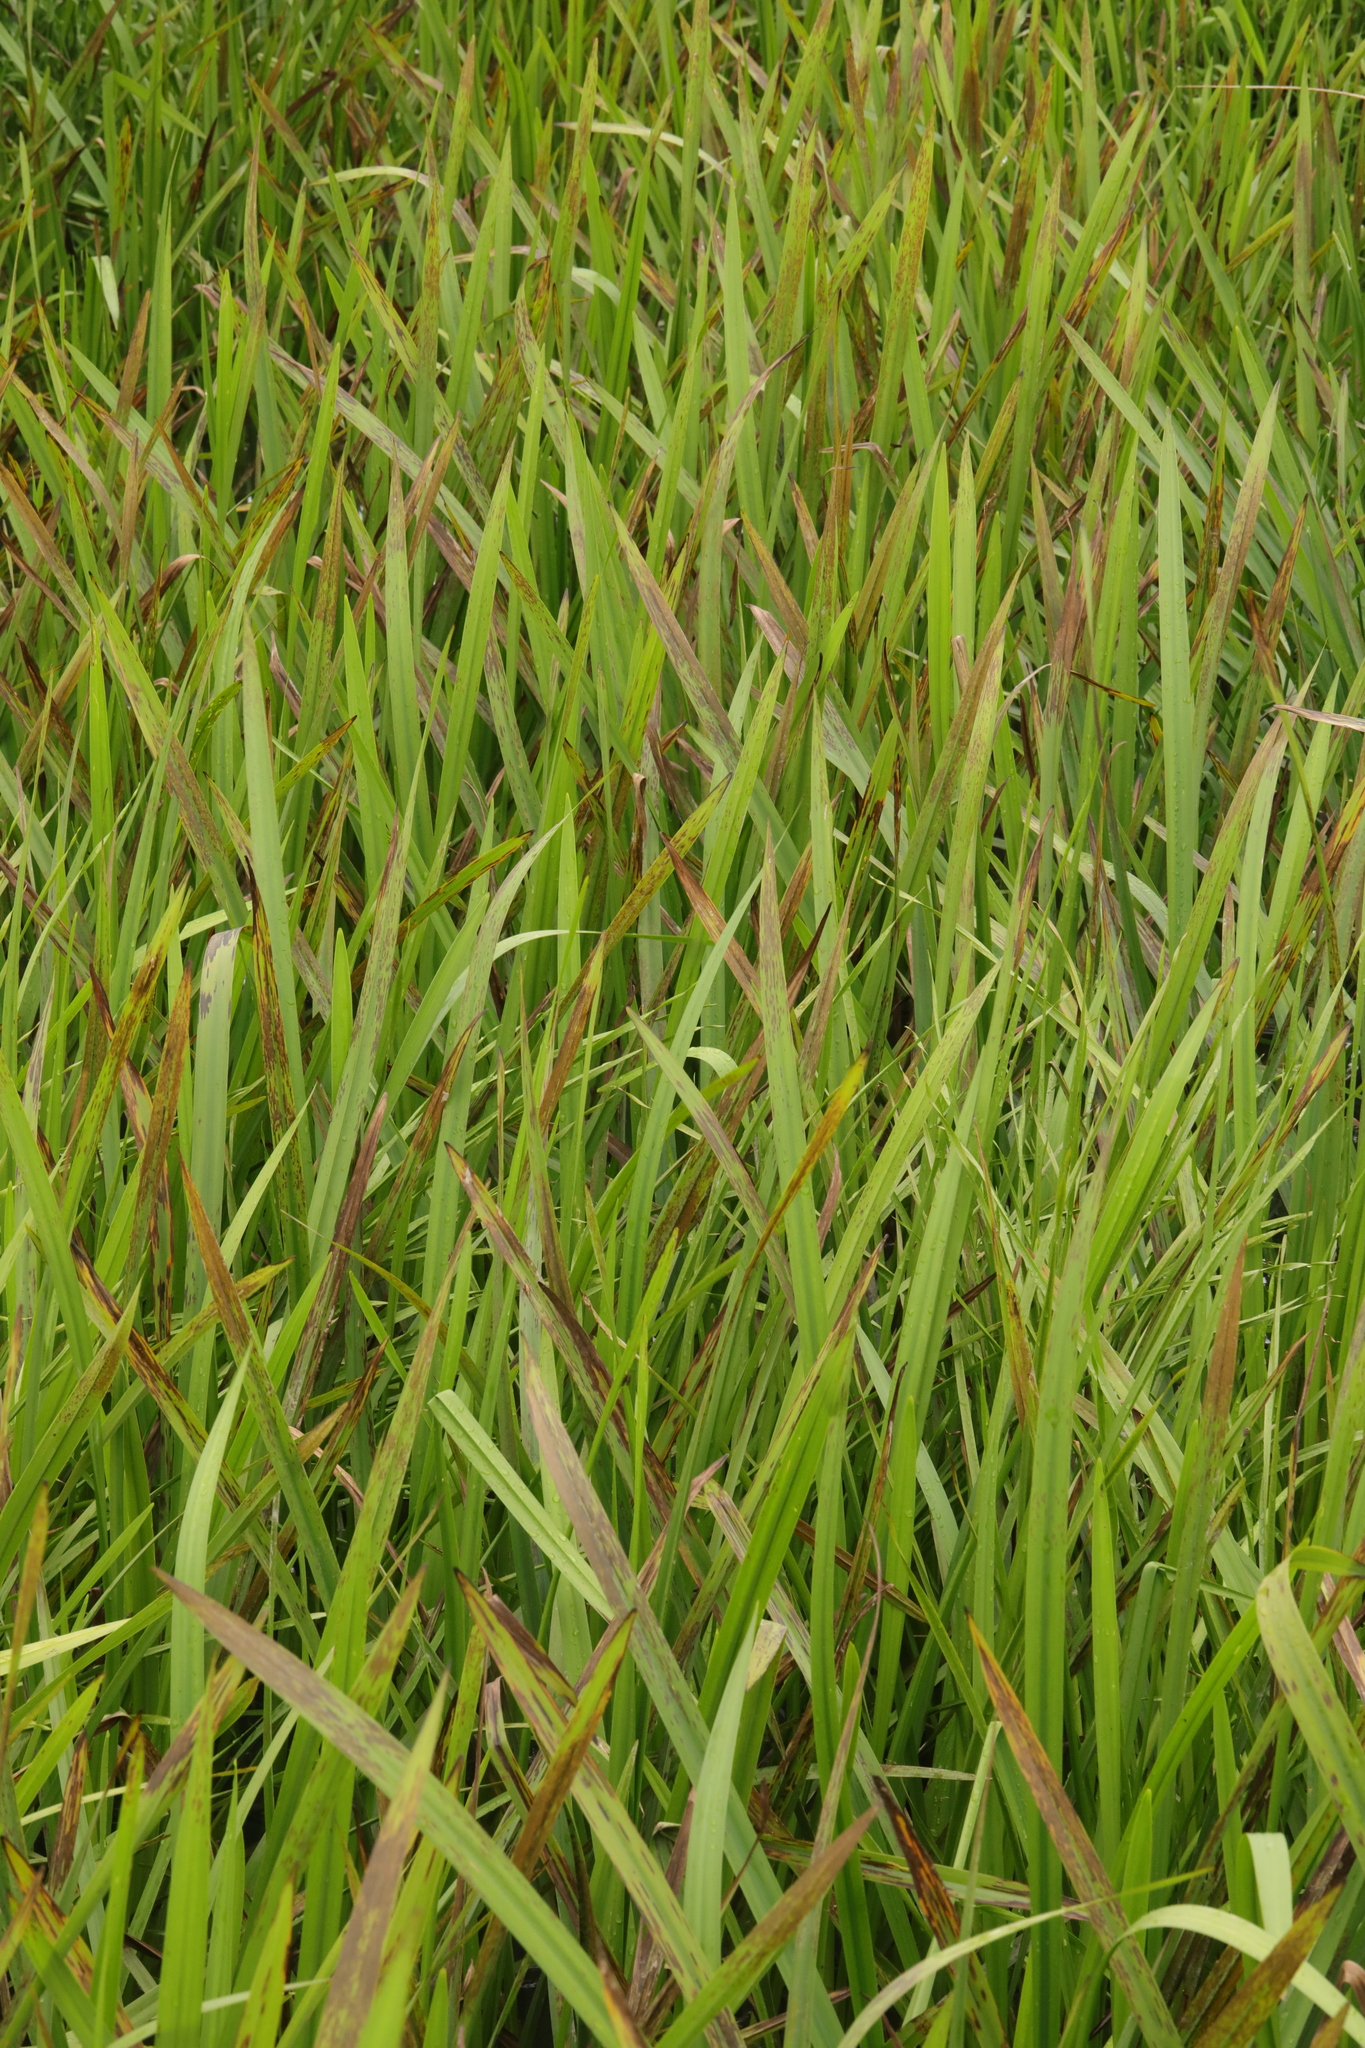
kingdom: Plantae
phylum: Tracheophyta
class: Liliopsida
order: Poales
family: Typhaceae
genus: Sparganium
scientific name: Sparganium erectum
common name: Branched bur-reed
